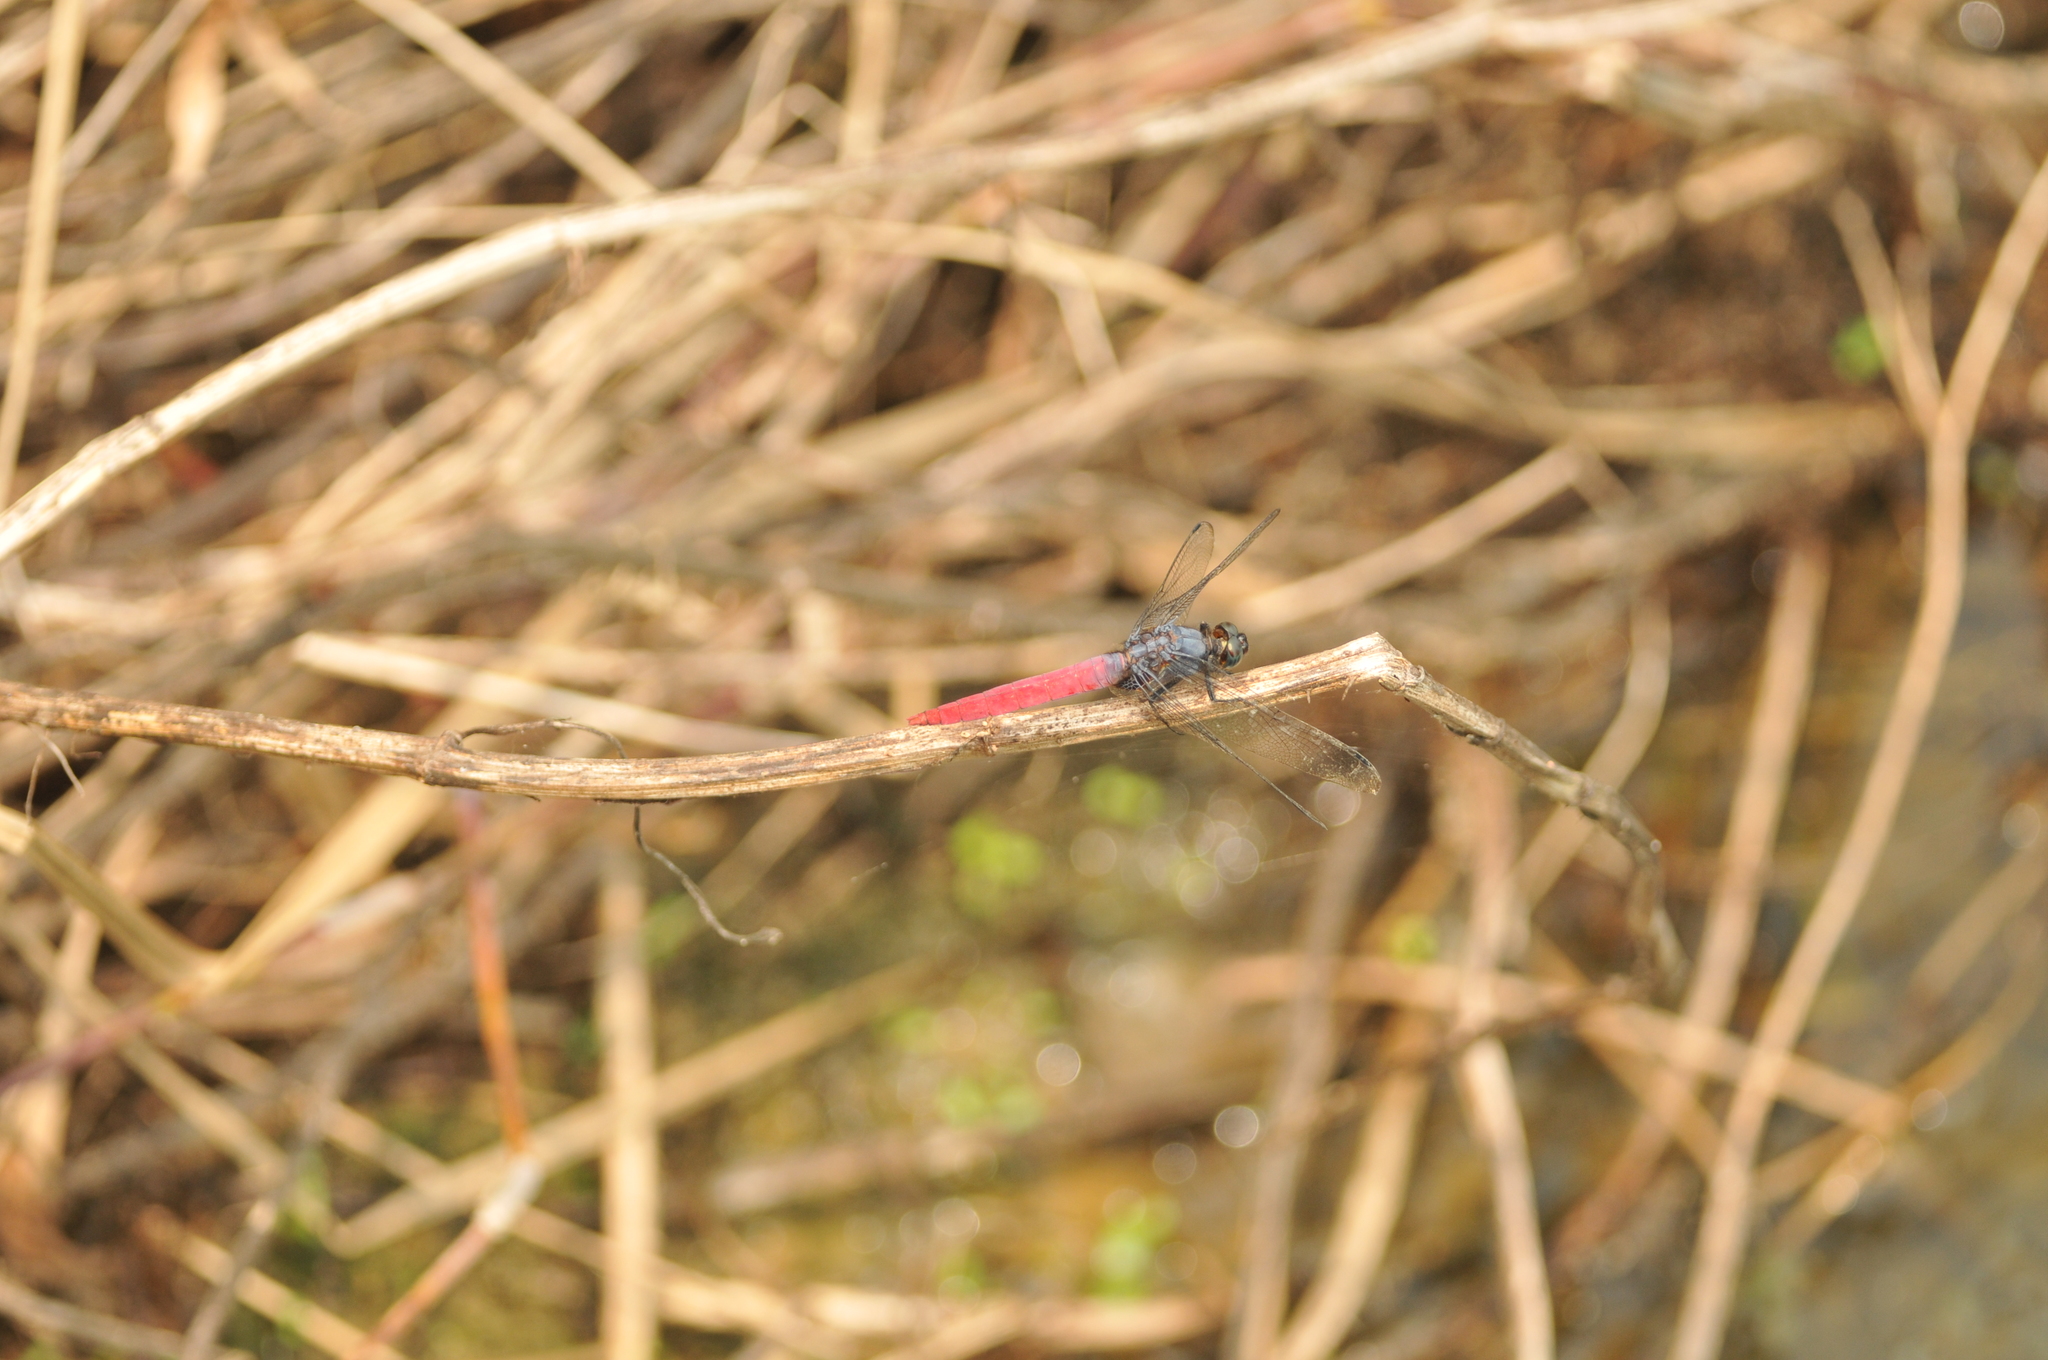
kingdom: Animalia
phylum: Arthropoda
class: Insecta
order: Odonata
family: Libellulidae
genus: Orthetrum
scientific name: Orthetrum pruinosum
